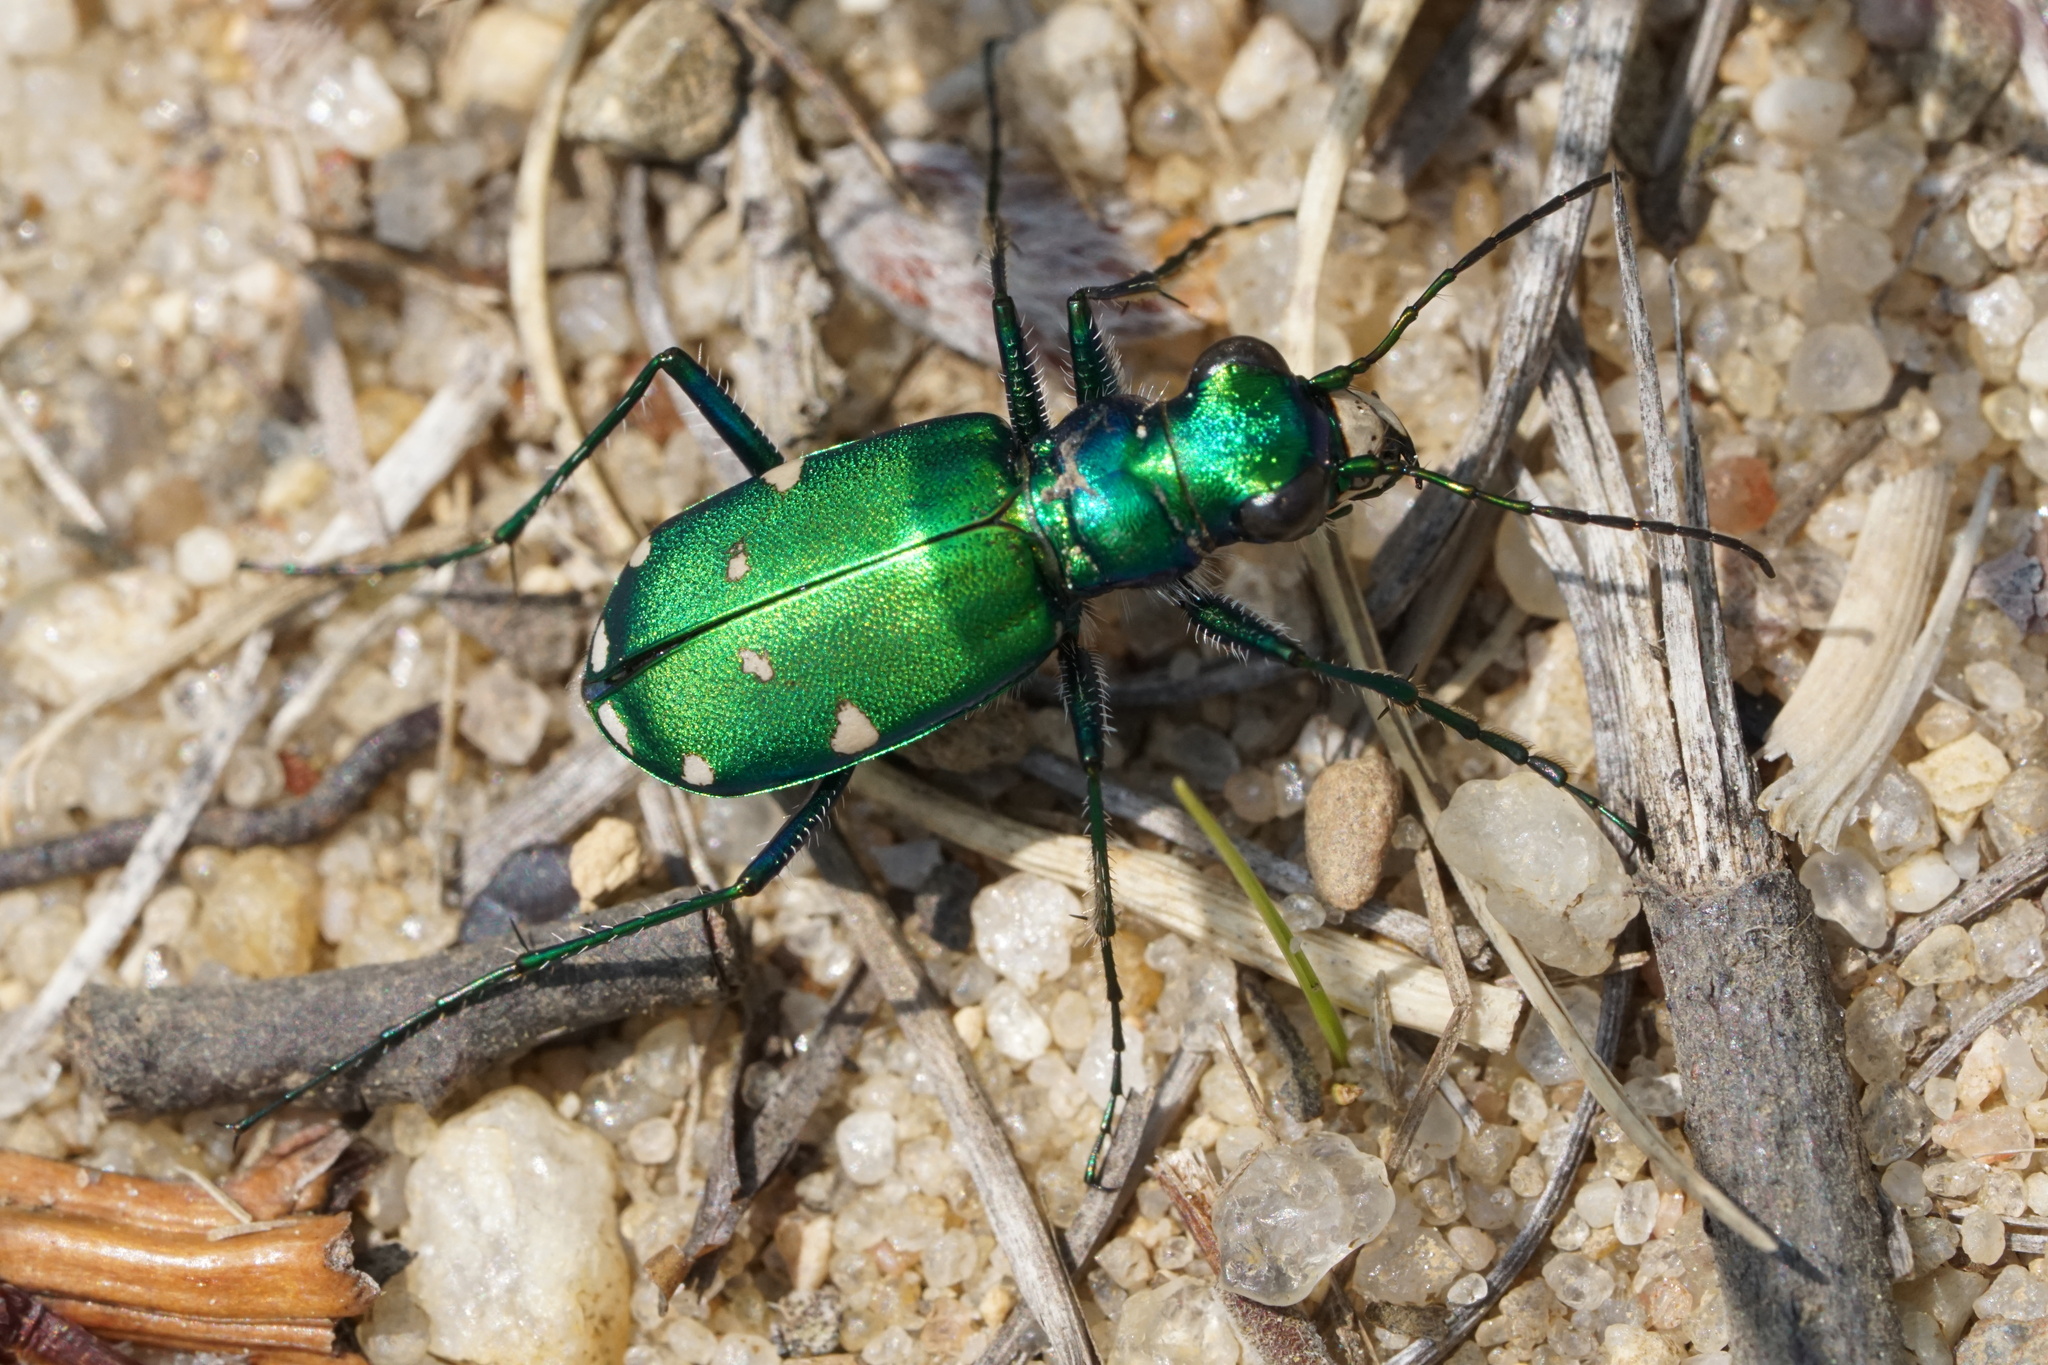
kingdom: Animalia
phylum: Arthropoda
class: Insecta
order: Coleoptera
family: Carabidae
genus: Cicindela
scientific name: Cicindela sexguttata
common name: Six-spotted tiger beetle
